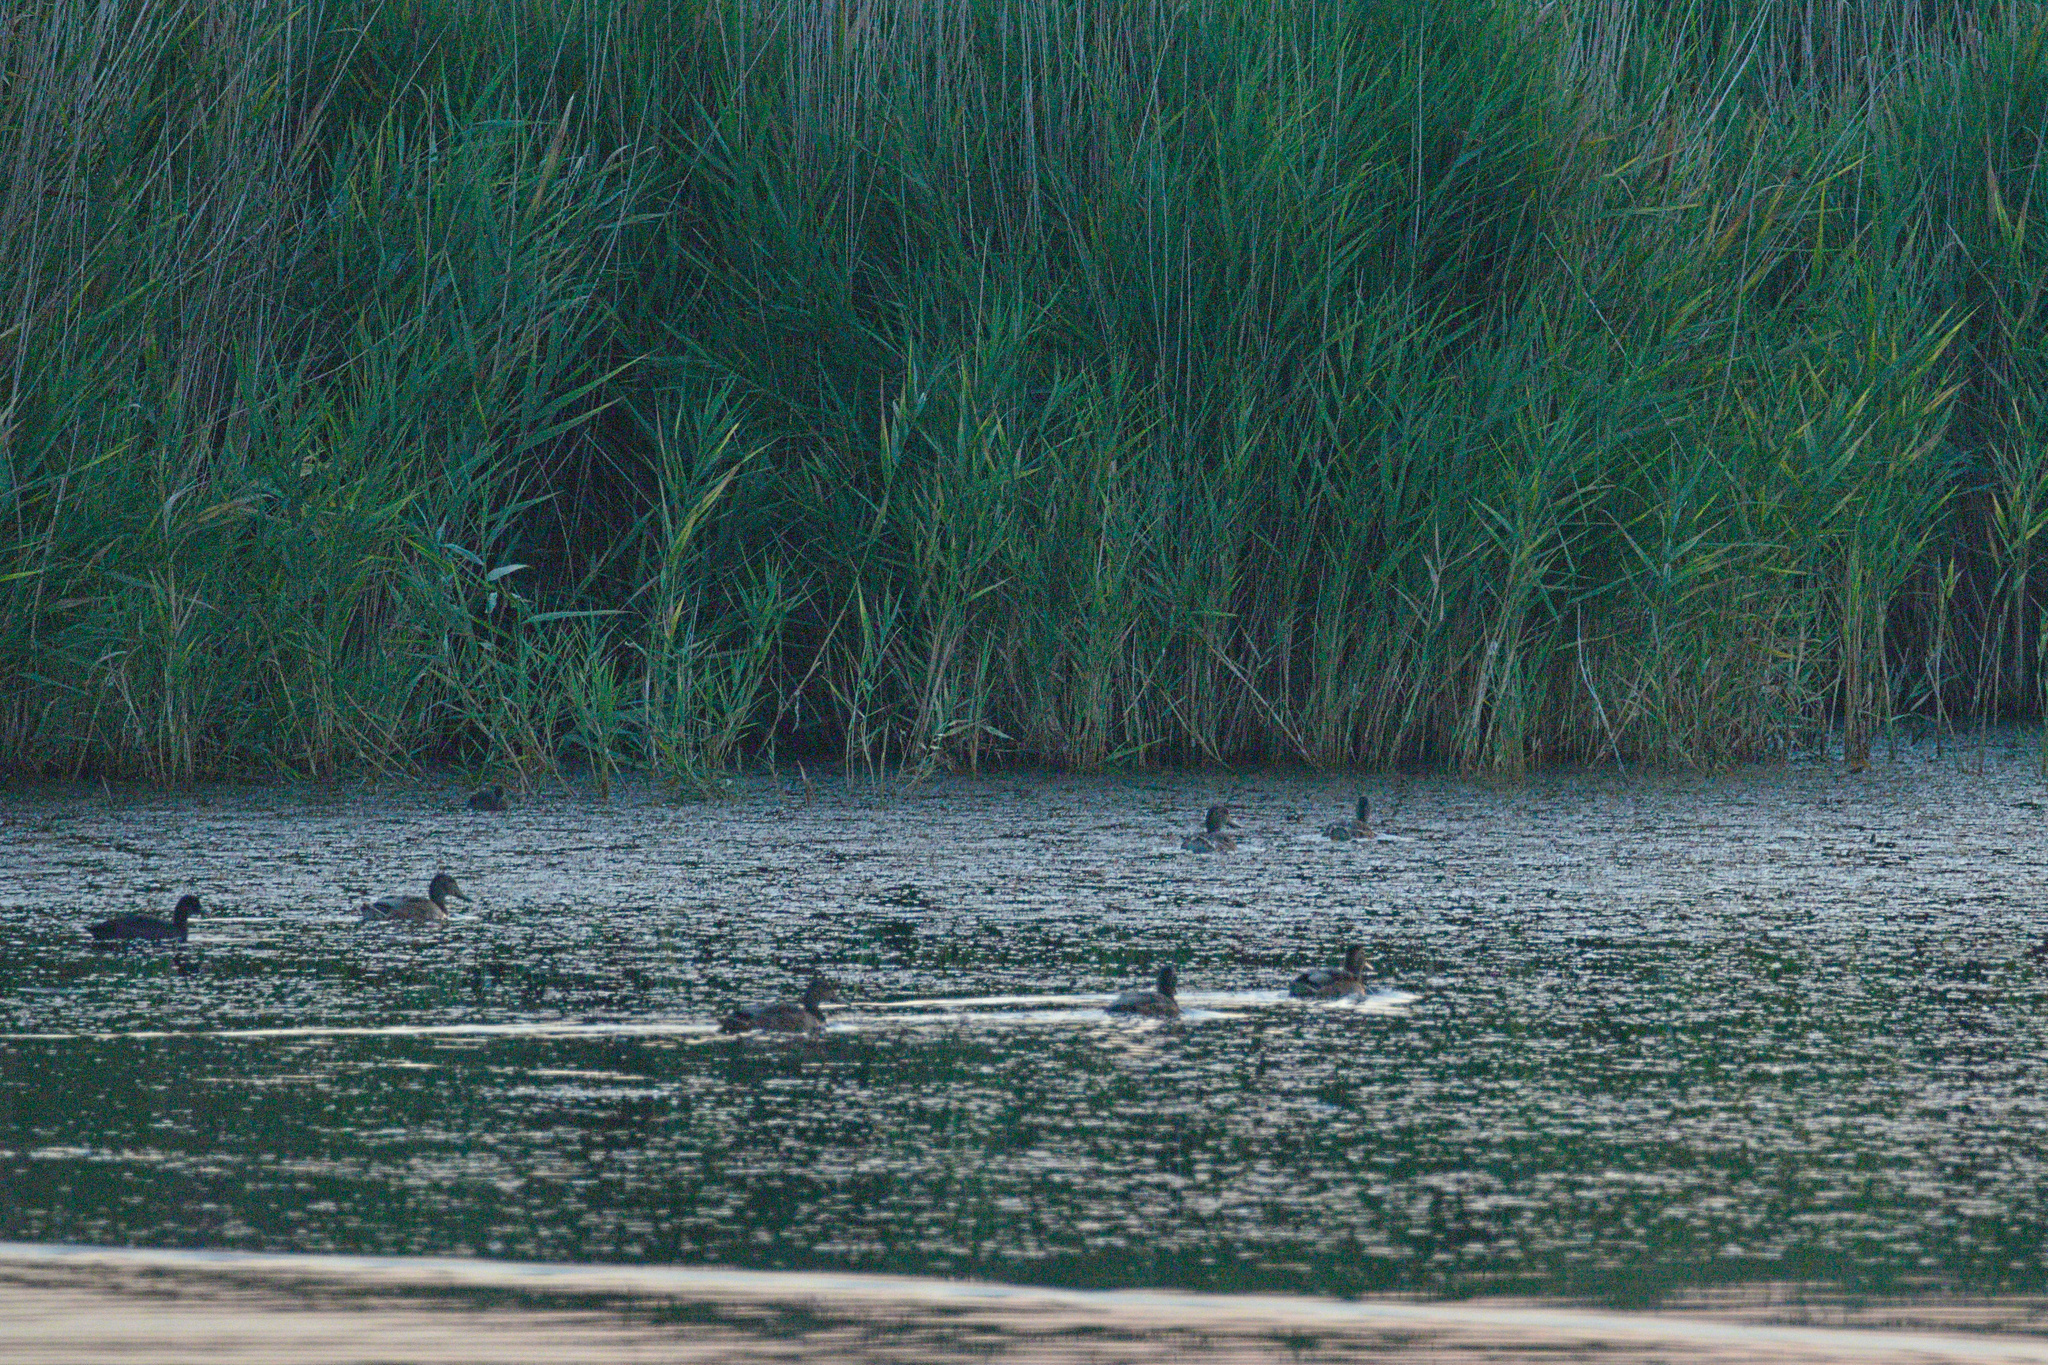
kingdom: Animalia
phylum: Chordata
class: Aves
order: Anseriformes
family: Anatidae
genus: Anas
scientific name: Anas platyrhynchos
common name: Mallard
